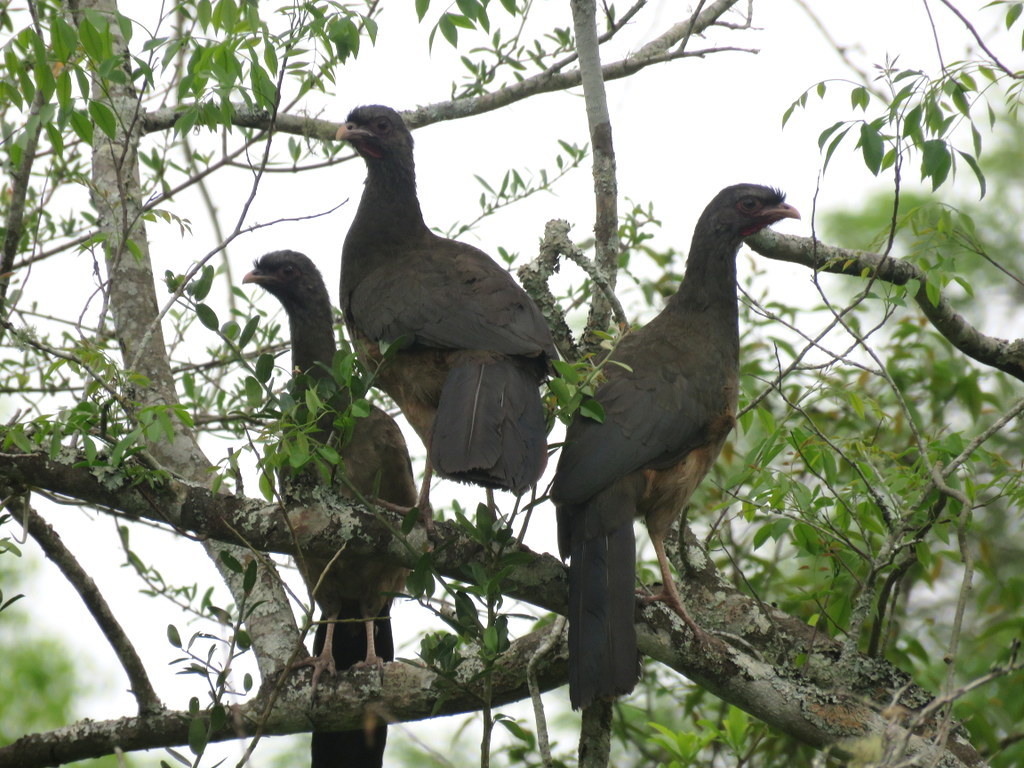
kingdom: Animalia
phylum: Chordata
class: Aves
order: Galliformes
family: Cracidae
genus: Ortalis
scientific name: Ortalis canicollis
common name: Chaco chachalaca
